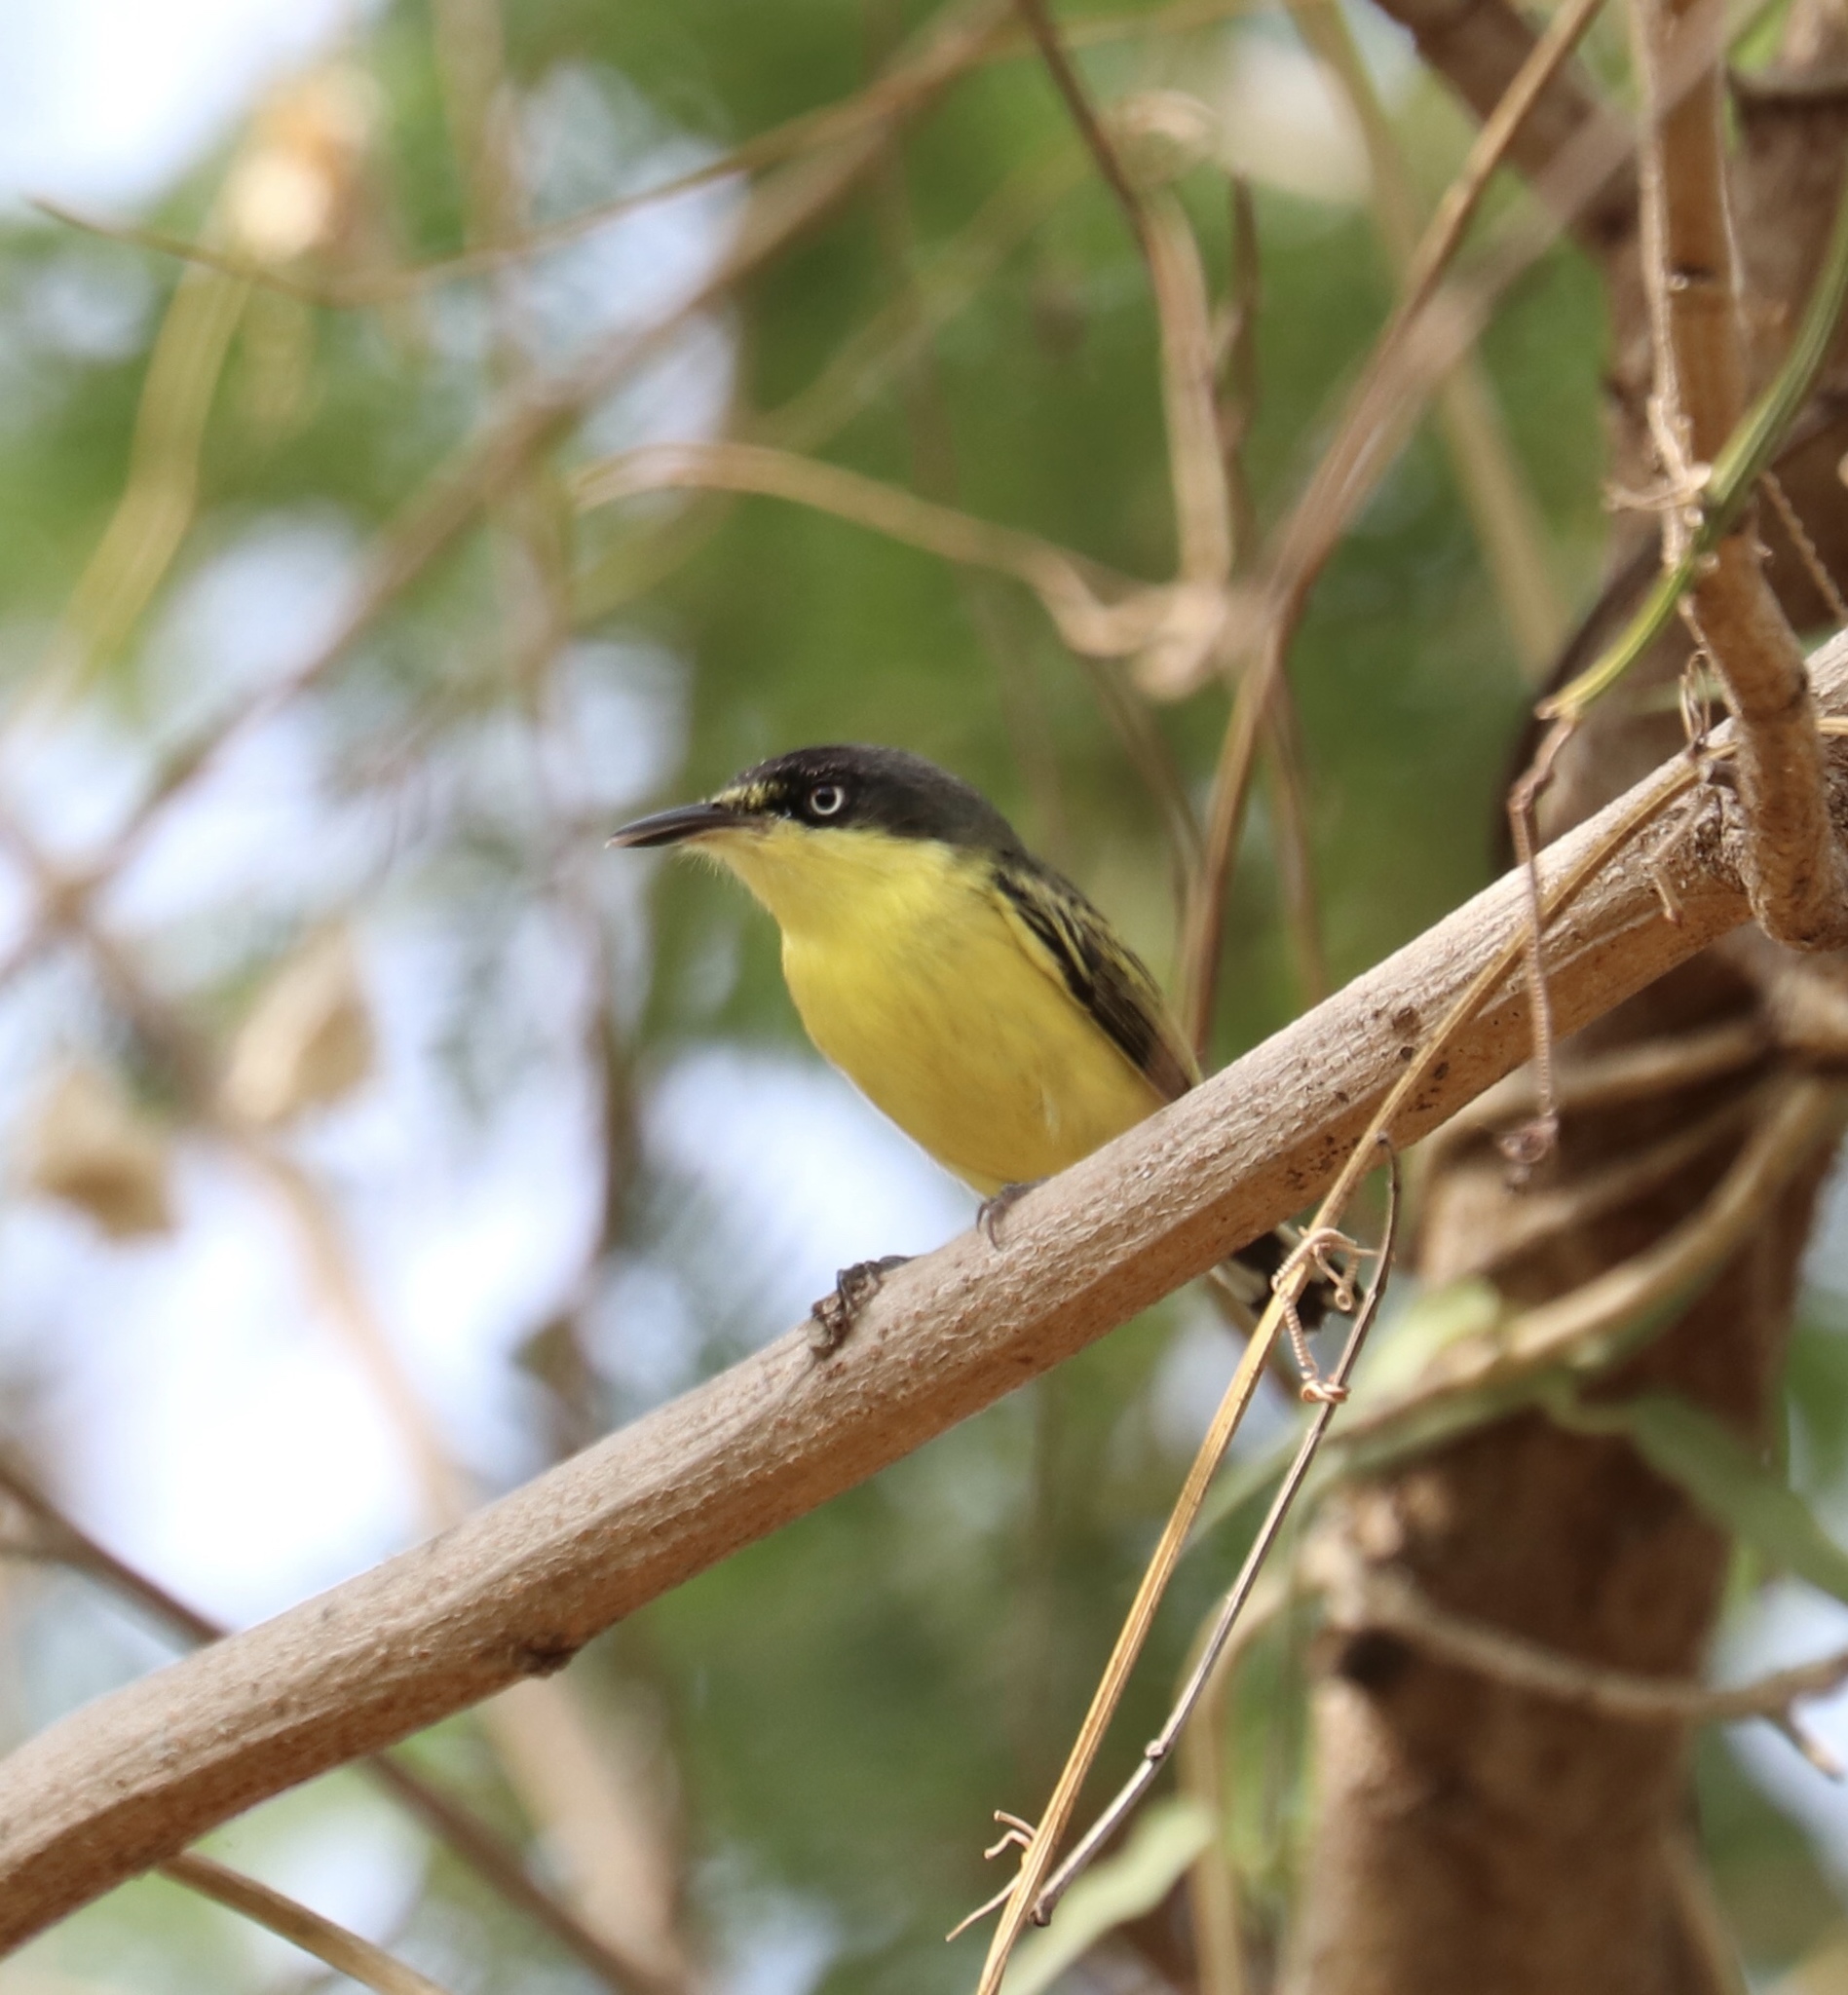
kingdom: Animalia
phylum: Chordata
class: Aves
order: Passeriformes
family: Tyrannidae
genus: Todirostrum
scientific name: Todirostrum cinereum
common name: Common tody-flycatcher
